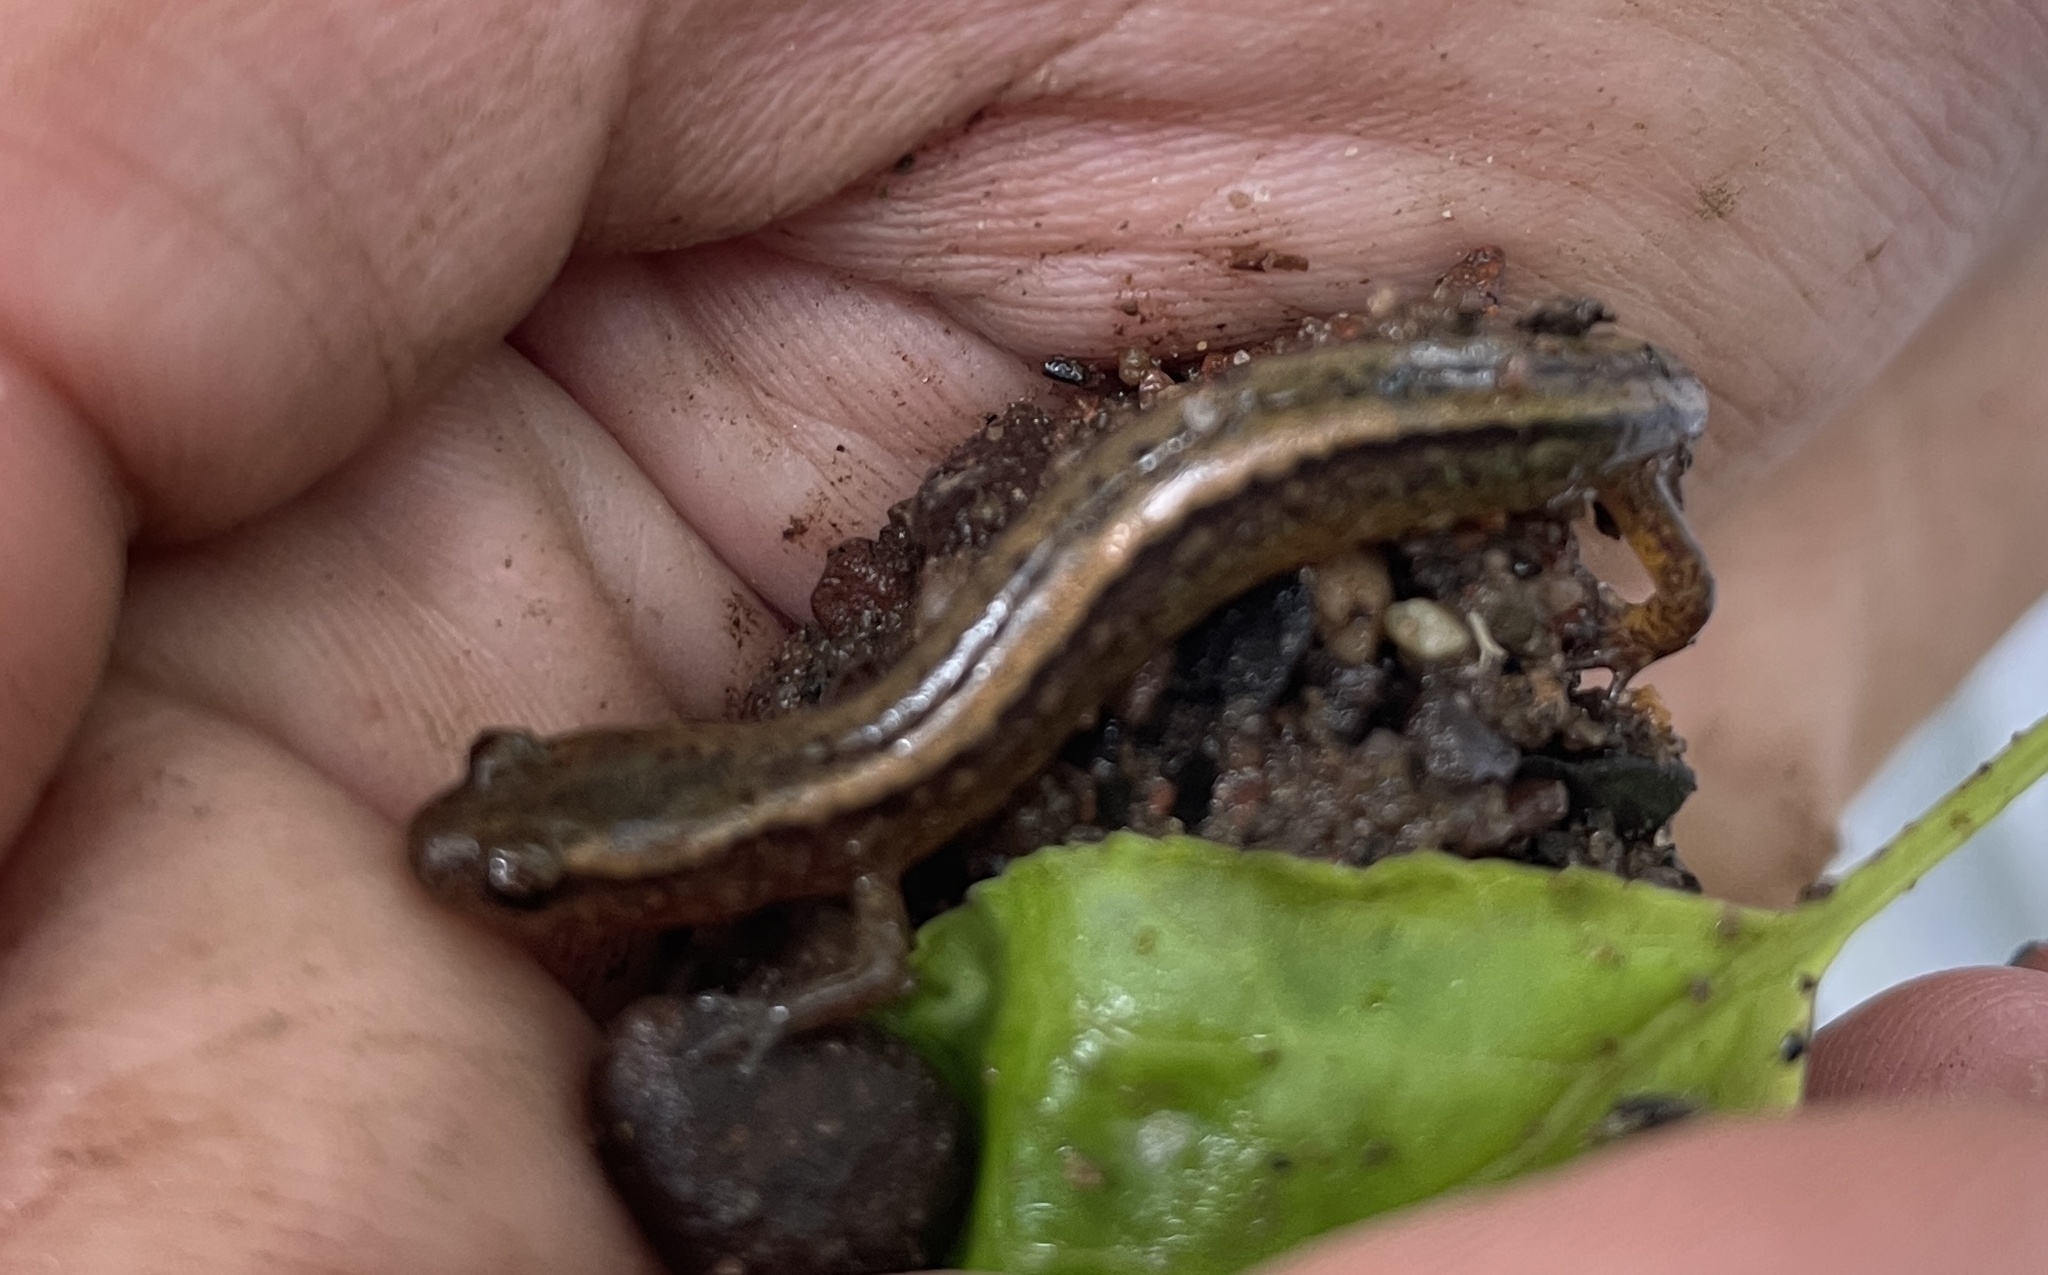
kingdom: Animalia
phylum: Chordata
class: Amphibia
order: Caudata
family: Plethodontidae
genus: Eurycea
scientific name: Eurycea bislineata
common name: Northern two-lined salamander
